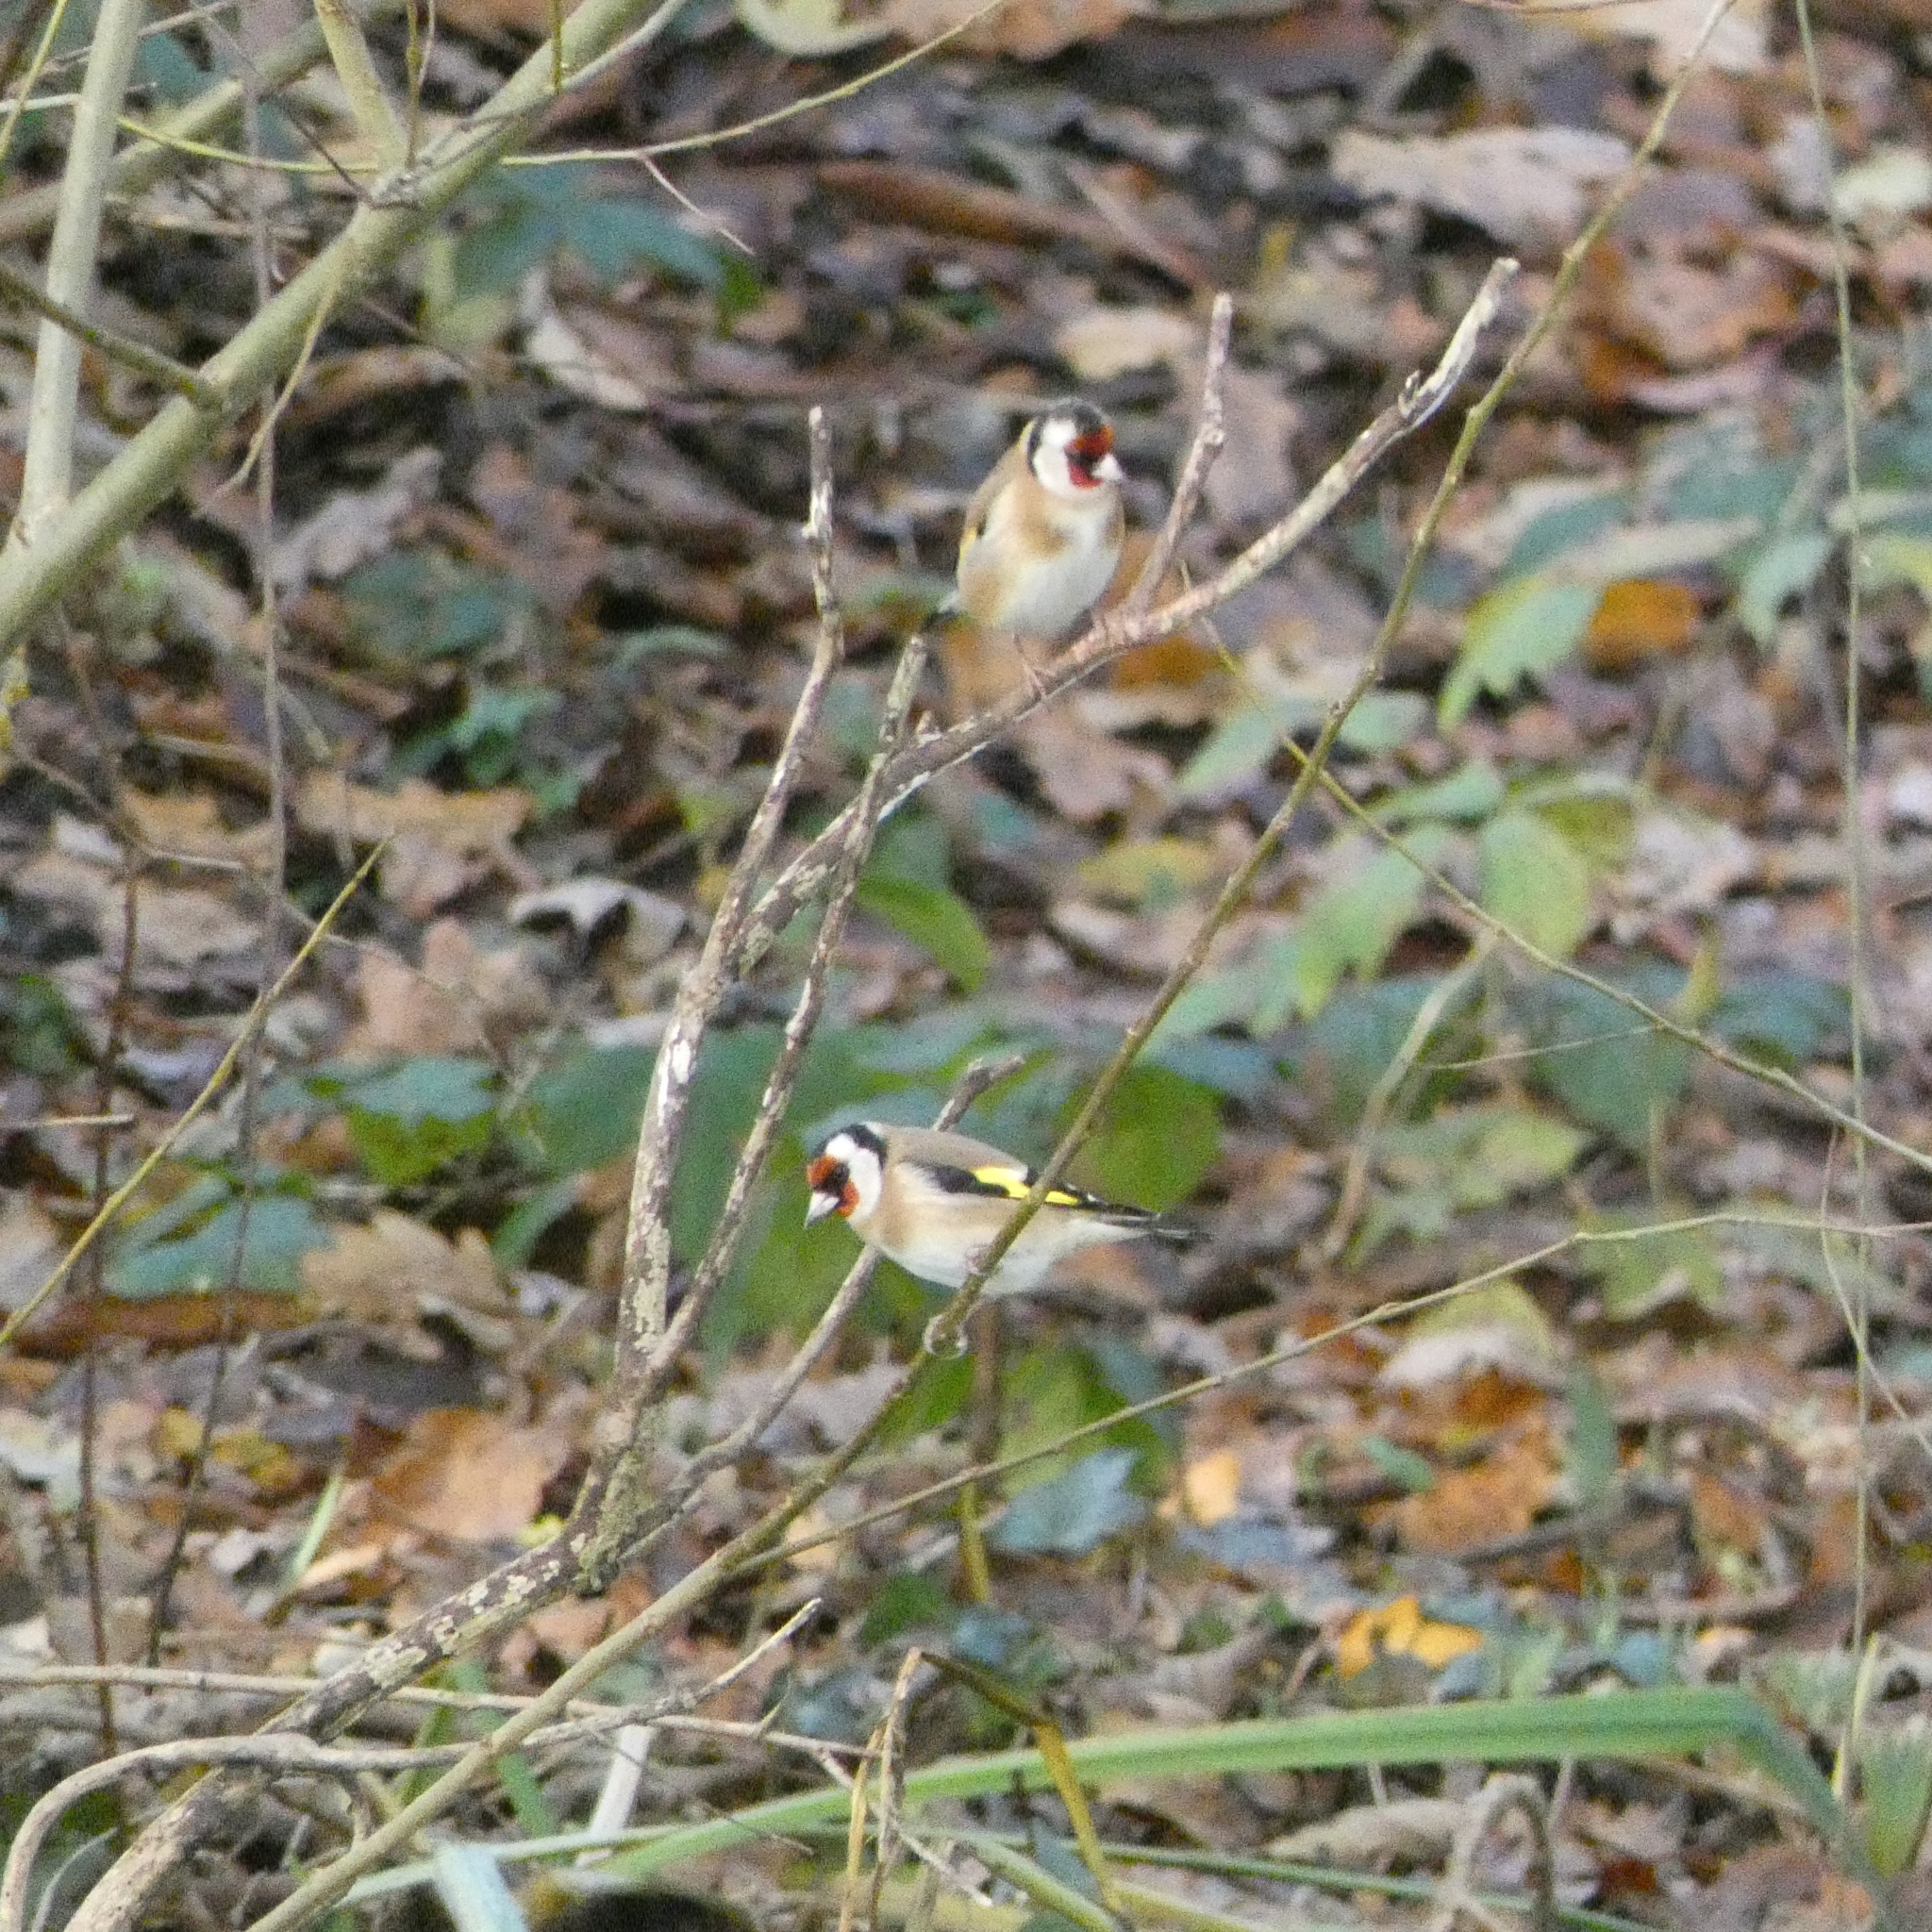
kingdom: Animalia
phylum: Chordata
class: Aves
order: Passeriformes
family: Fringillidae
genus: Carduelis
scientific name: Carduelis carduelis
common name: European goldfinch
